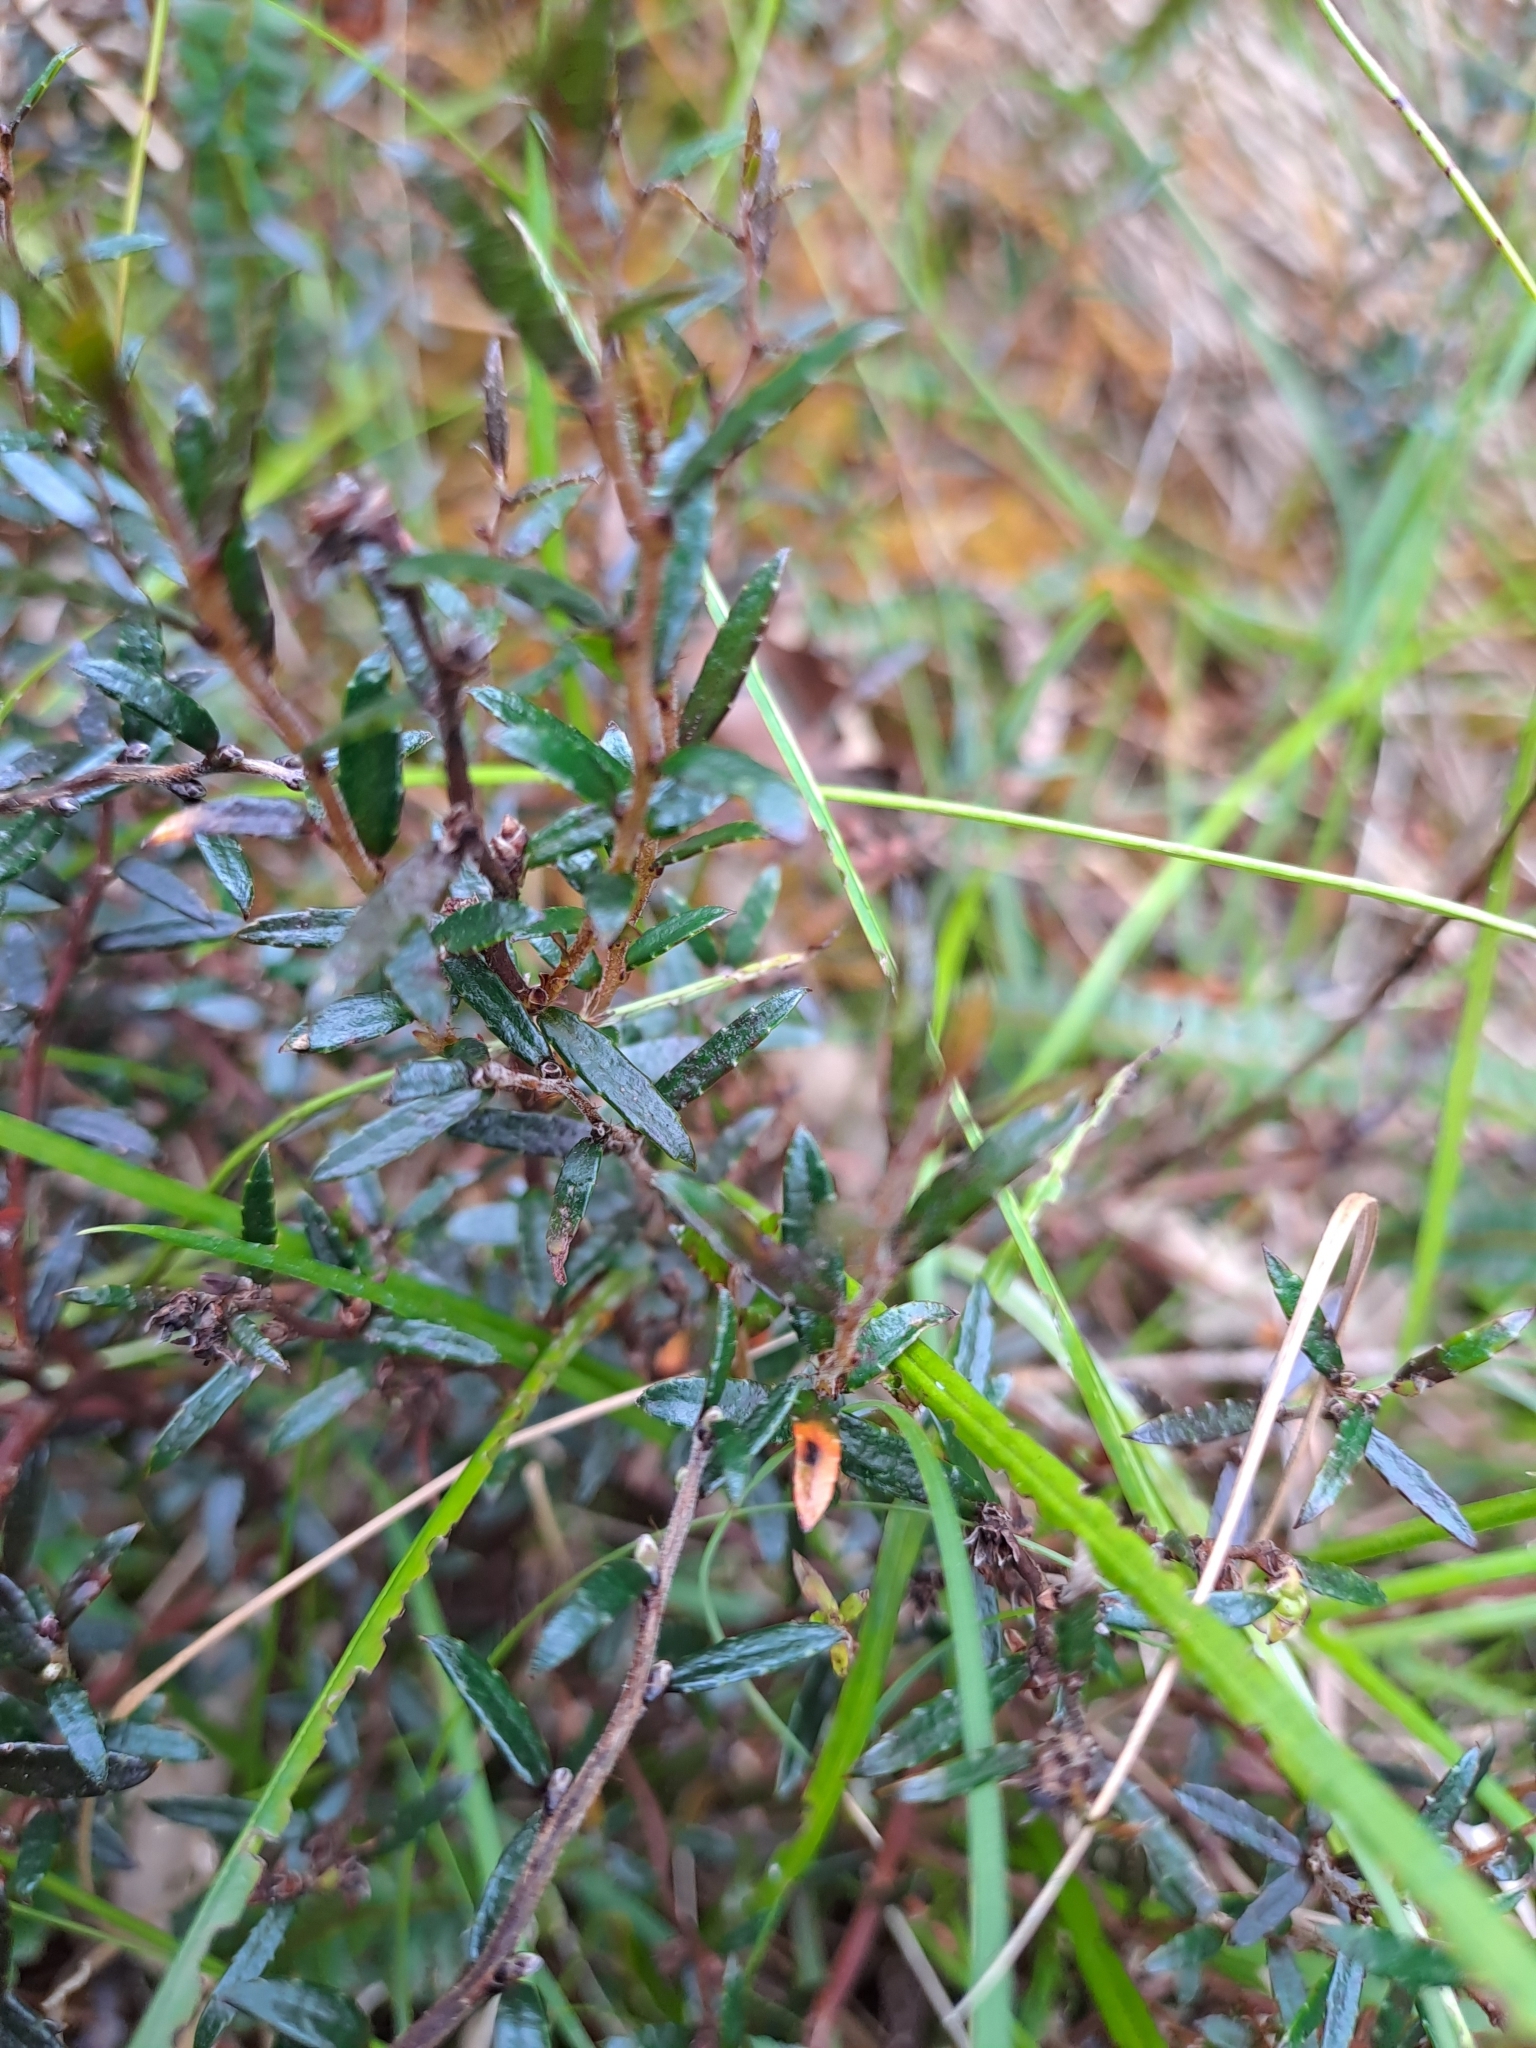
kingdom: Plantae
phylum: Tracheophyta
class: Magnoliopsida
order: Ericales
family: Ericaceae
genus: Gaultheria
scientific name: Gaultheria macrostigma
